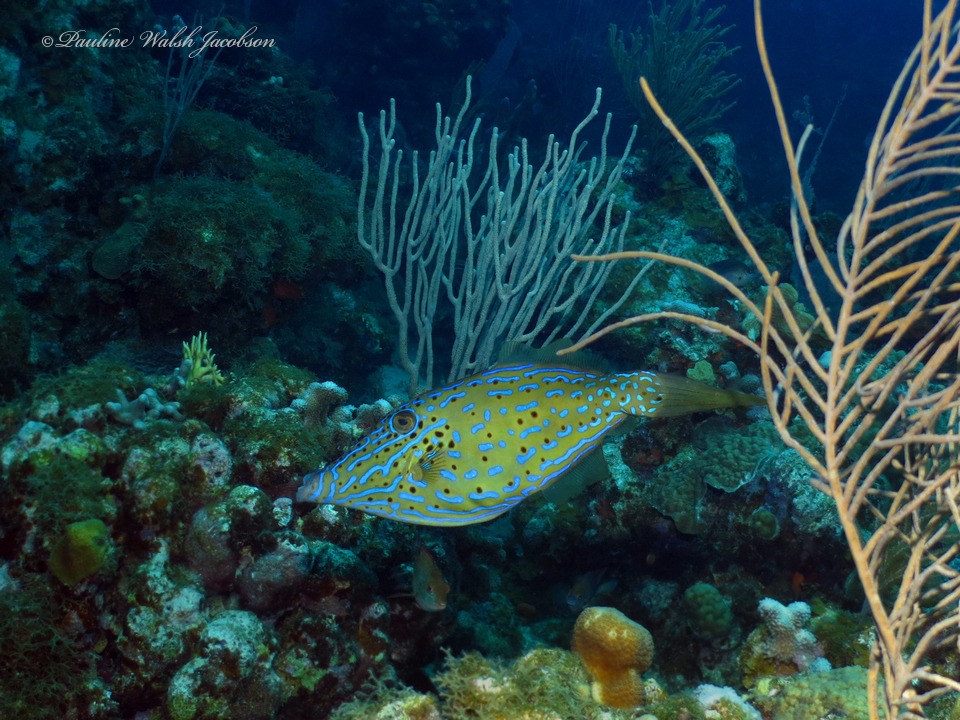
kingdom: Animalia
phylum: Chordata
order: Tetraodontiformes
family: Monacanthidae
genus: Aluterus
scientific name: Aluterus scriptus
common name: Scribbled leatherjacket filefish
